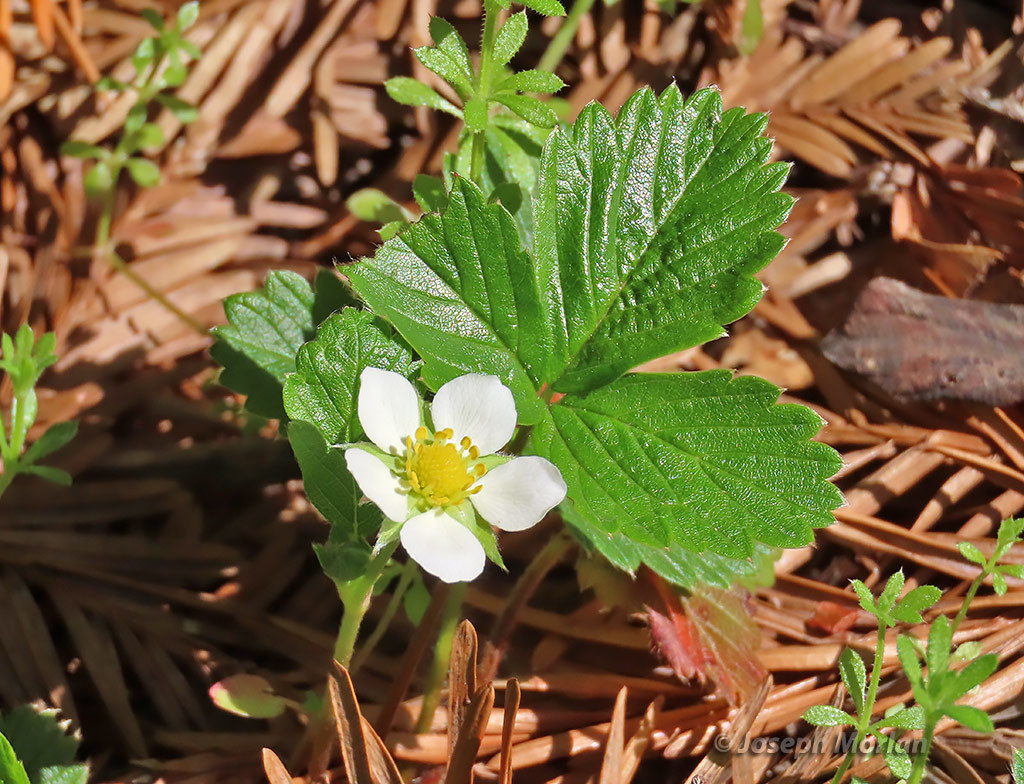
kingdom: Plantae
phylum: Tracheophyta
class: Magnoliopsida
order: Rosales
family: Rosaceae
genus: Fragaria
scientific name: Fragaria vesca
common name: Wild strawberry
